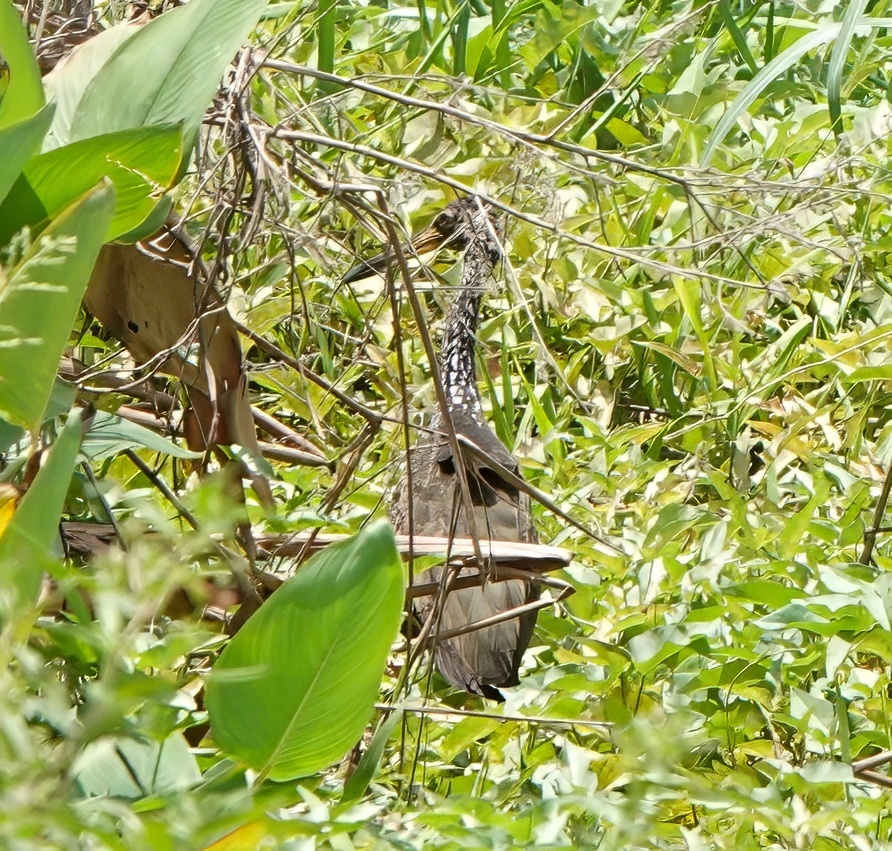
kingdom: Animalia
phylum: Chordata
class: Aves
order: Gruiformes
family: Aramidae
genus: Aramus
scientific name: Aramus guarauna
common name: Limpkin
